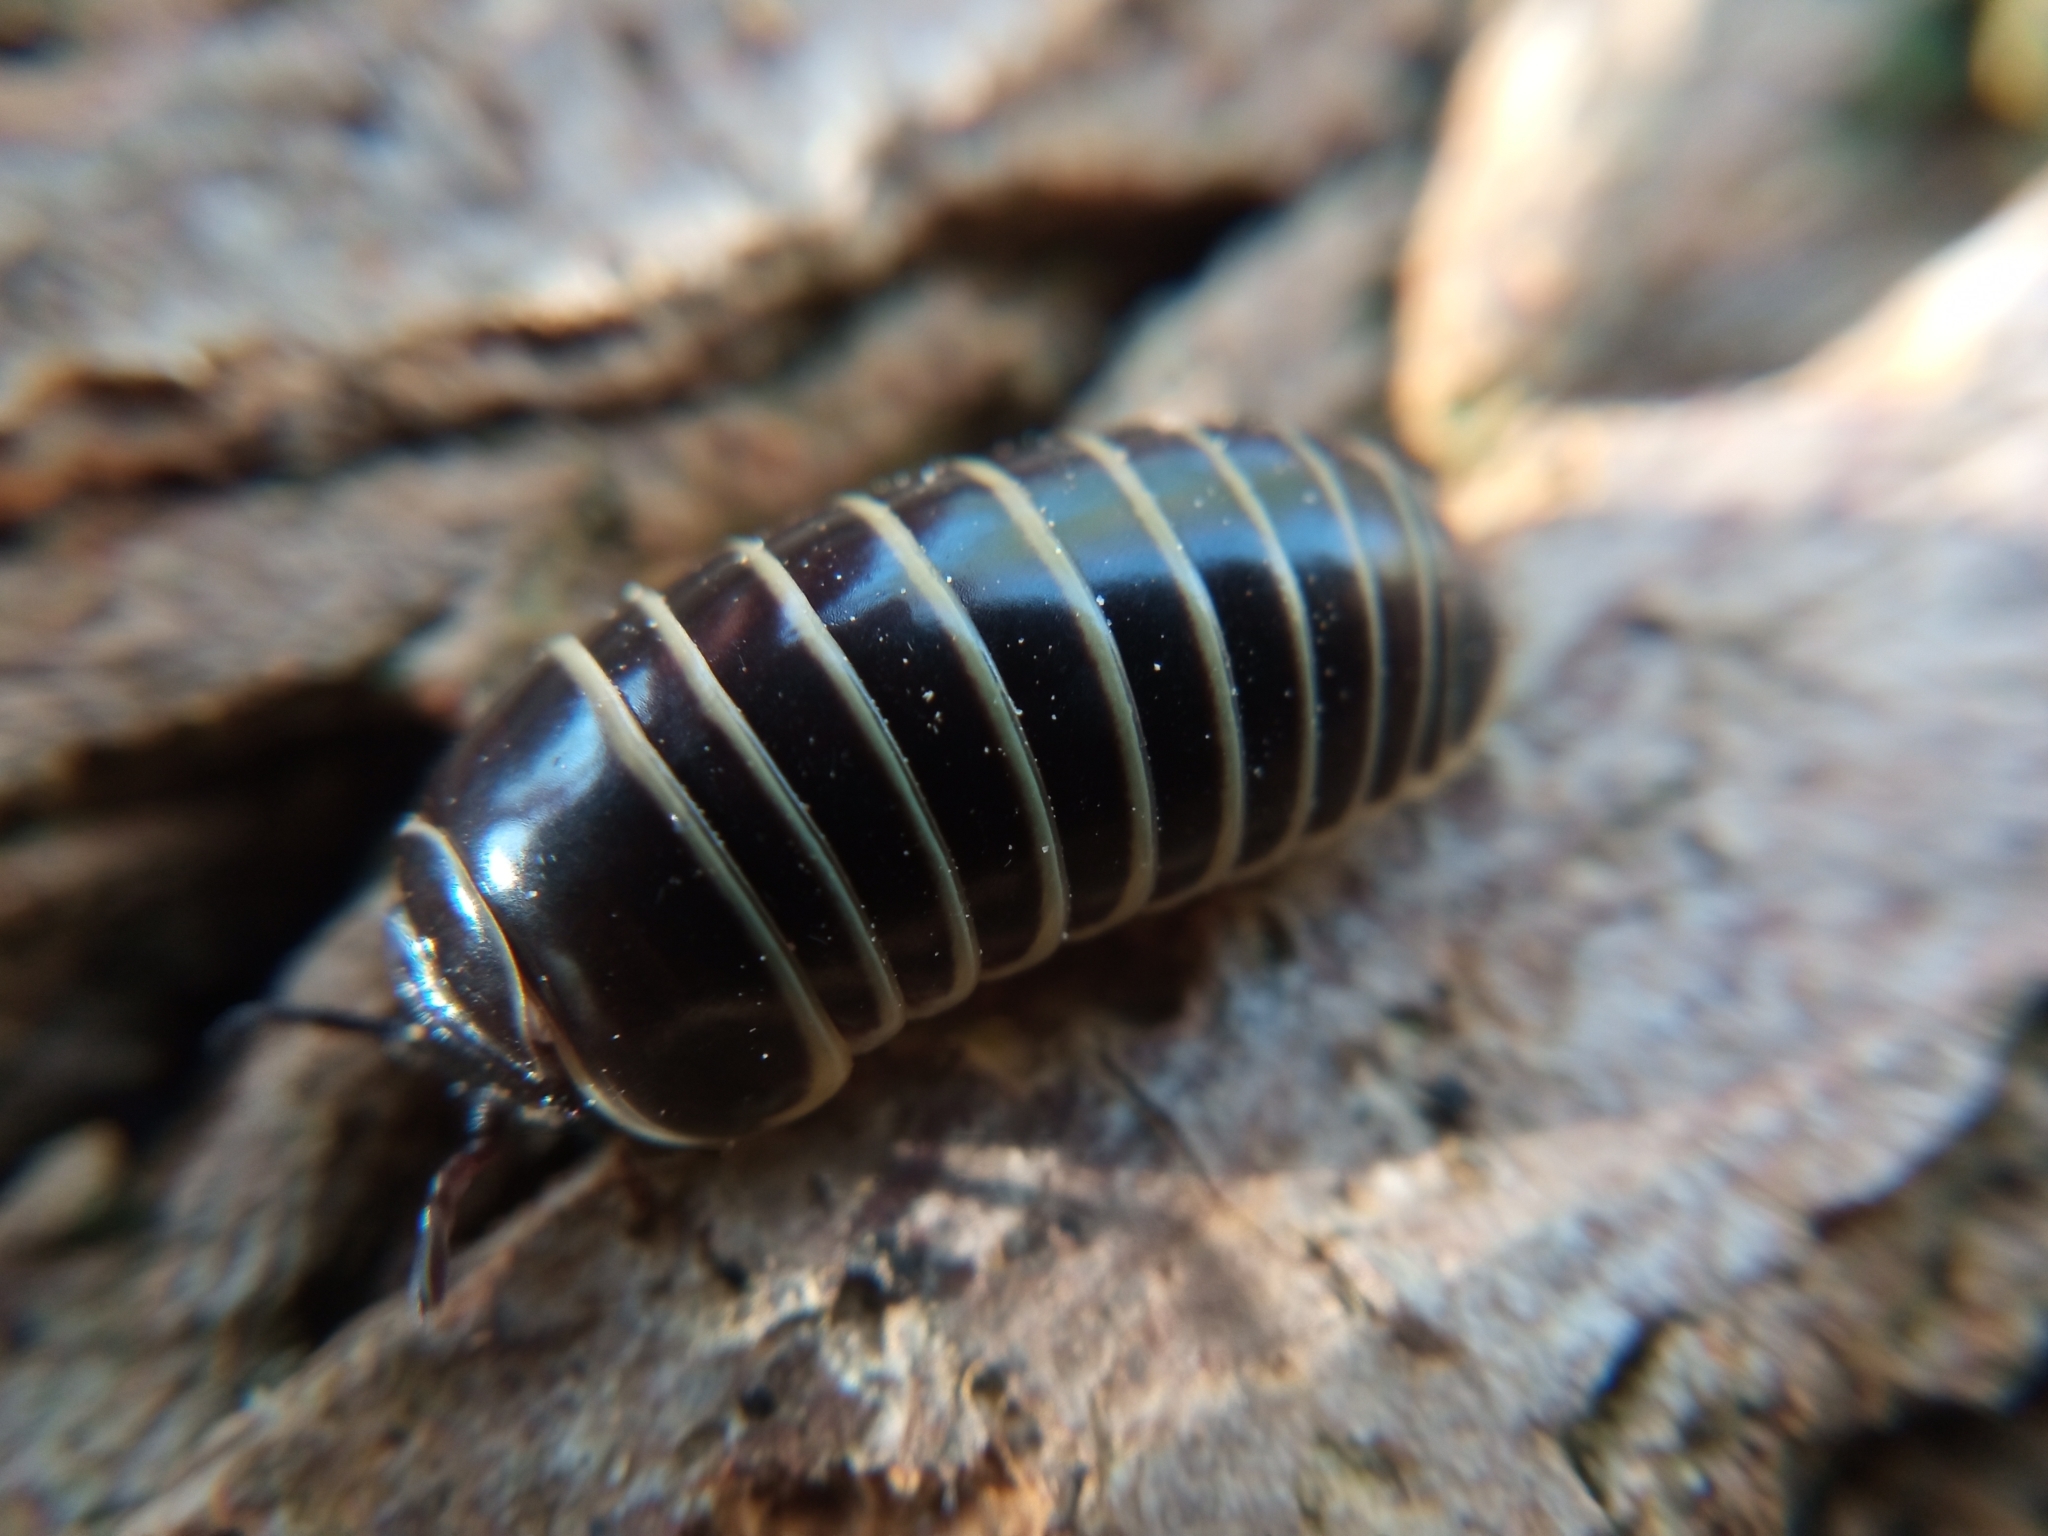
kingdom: Animalia
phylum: Arthropoda
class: Diplopoda
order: Glomerida
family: Glomeridae
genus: Glomeris
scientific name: Glomeris marginata
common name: Bordered pill millipede
